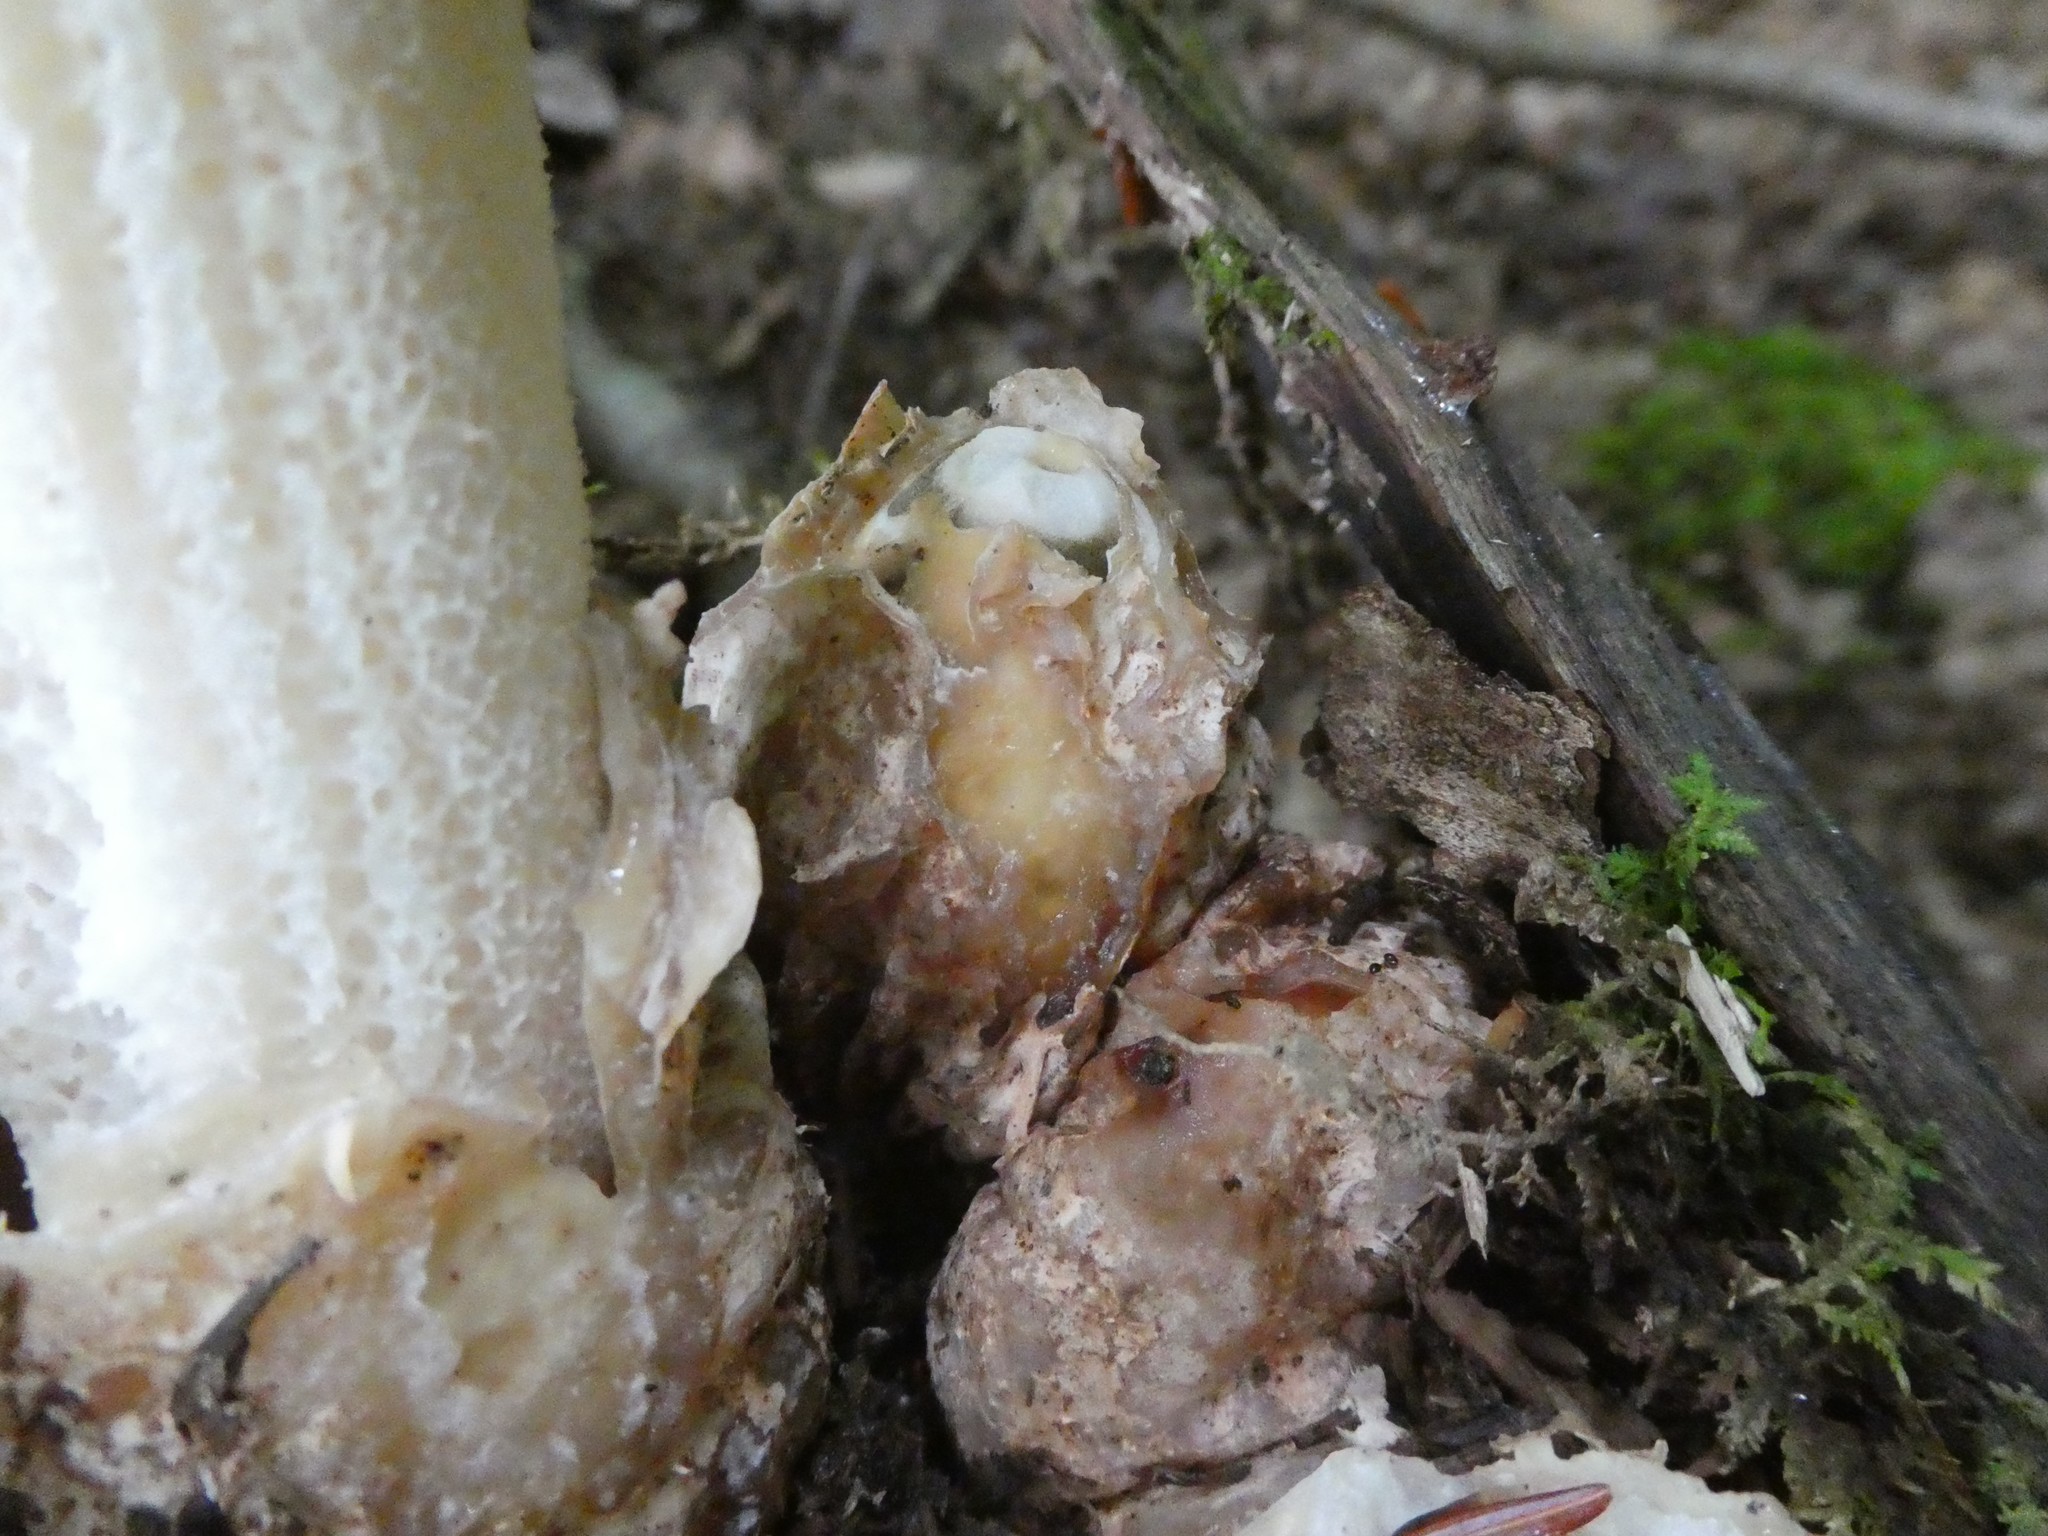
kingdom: Fungi
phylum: Basidiomycota
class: Agaricomycetes
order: Phallales
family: Phallaceae
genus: Phallus
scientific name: Phallus ravenelii
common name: Ravenel's stinkhorn
